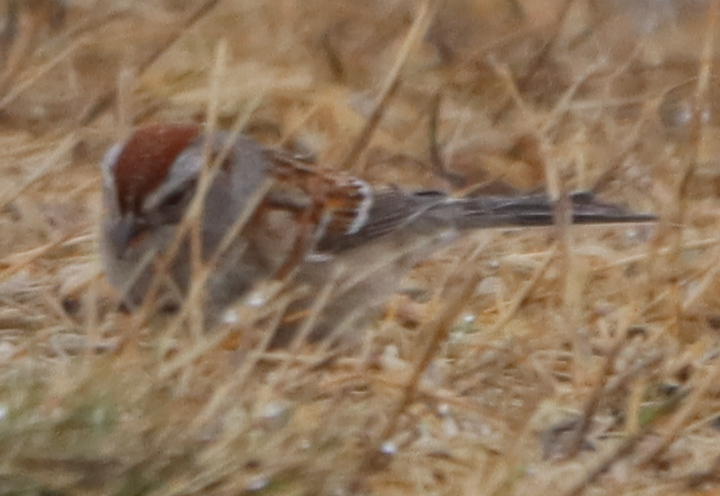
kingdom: Animalia
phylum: Chordata
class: Aves
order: Passeriformes
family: Passerellidae
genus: Spizelloides
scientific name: Spizelloides arborea
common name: American tree sparrow
